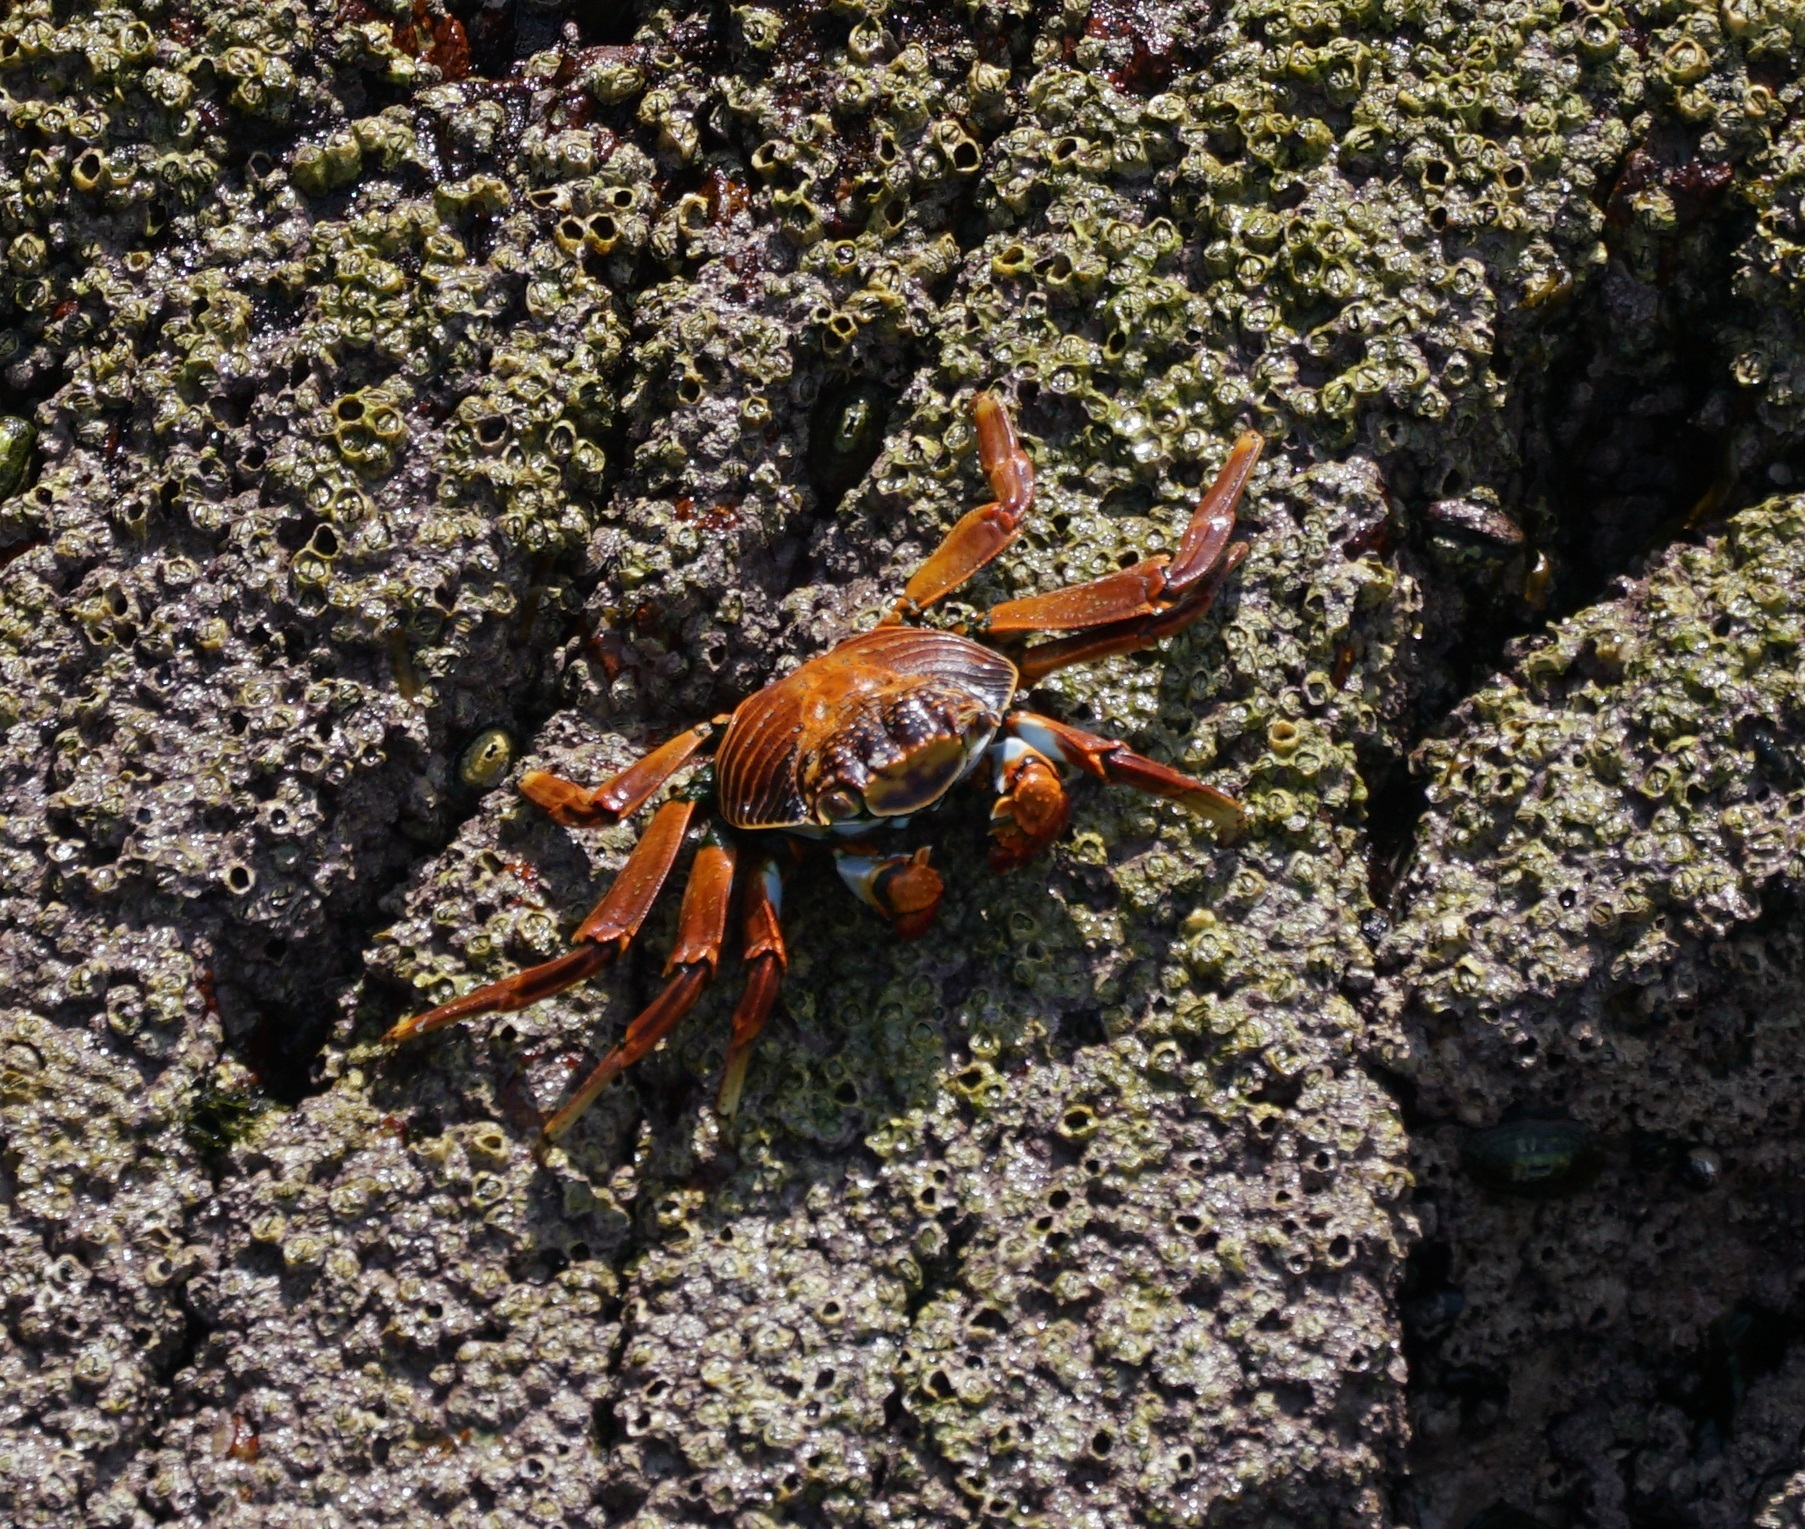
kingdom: Animalia
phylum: Arthropoda
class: Malacostraca
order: Decapoda
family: Grapsidae
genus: Grapsus
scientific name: Grapsus grapsus
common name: Sally lightfoot
